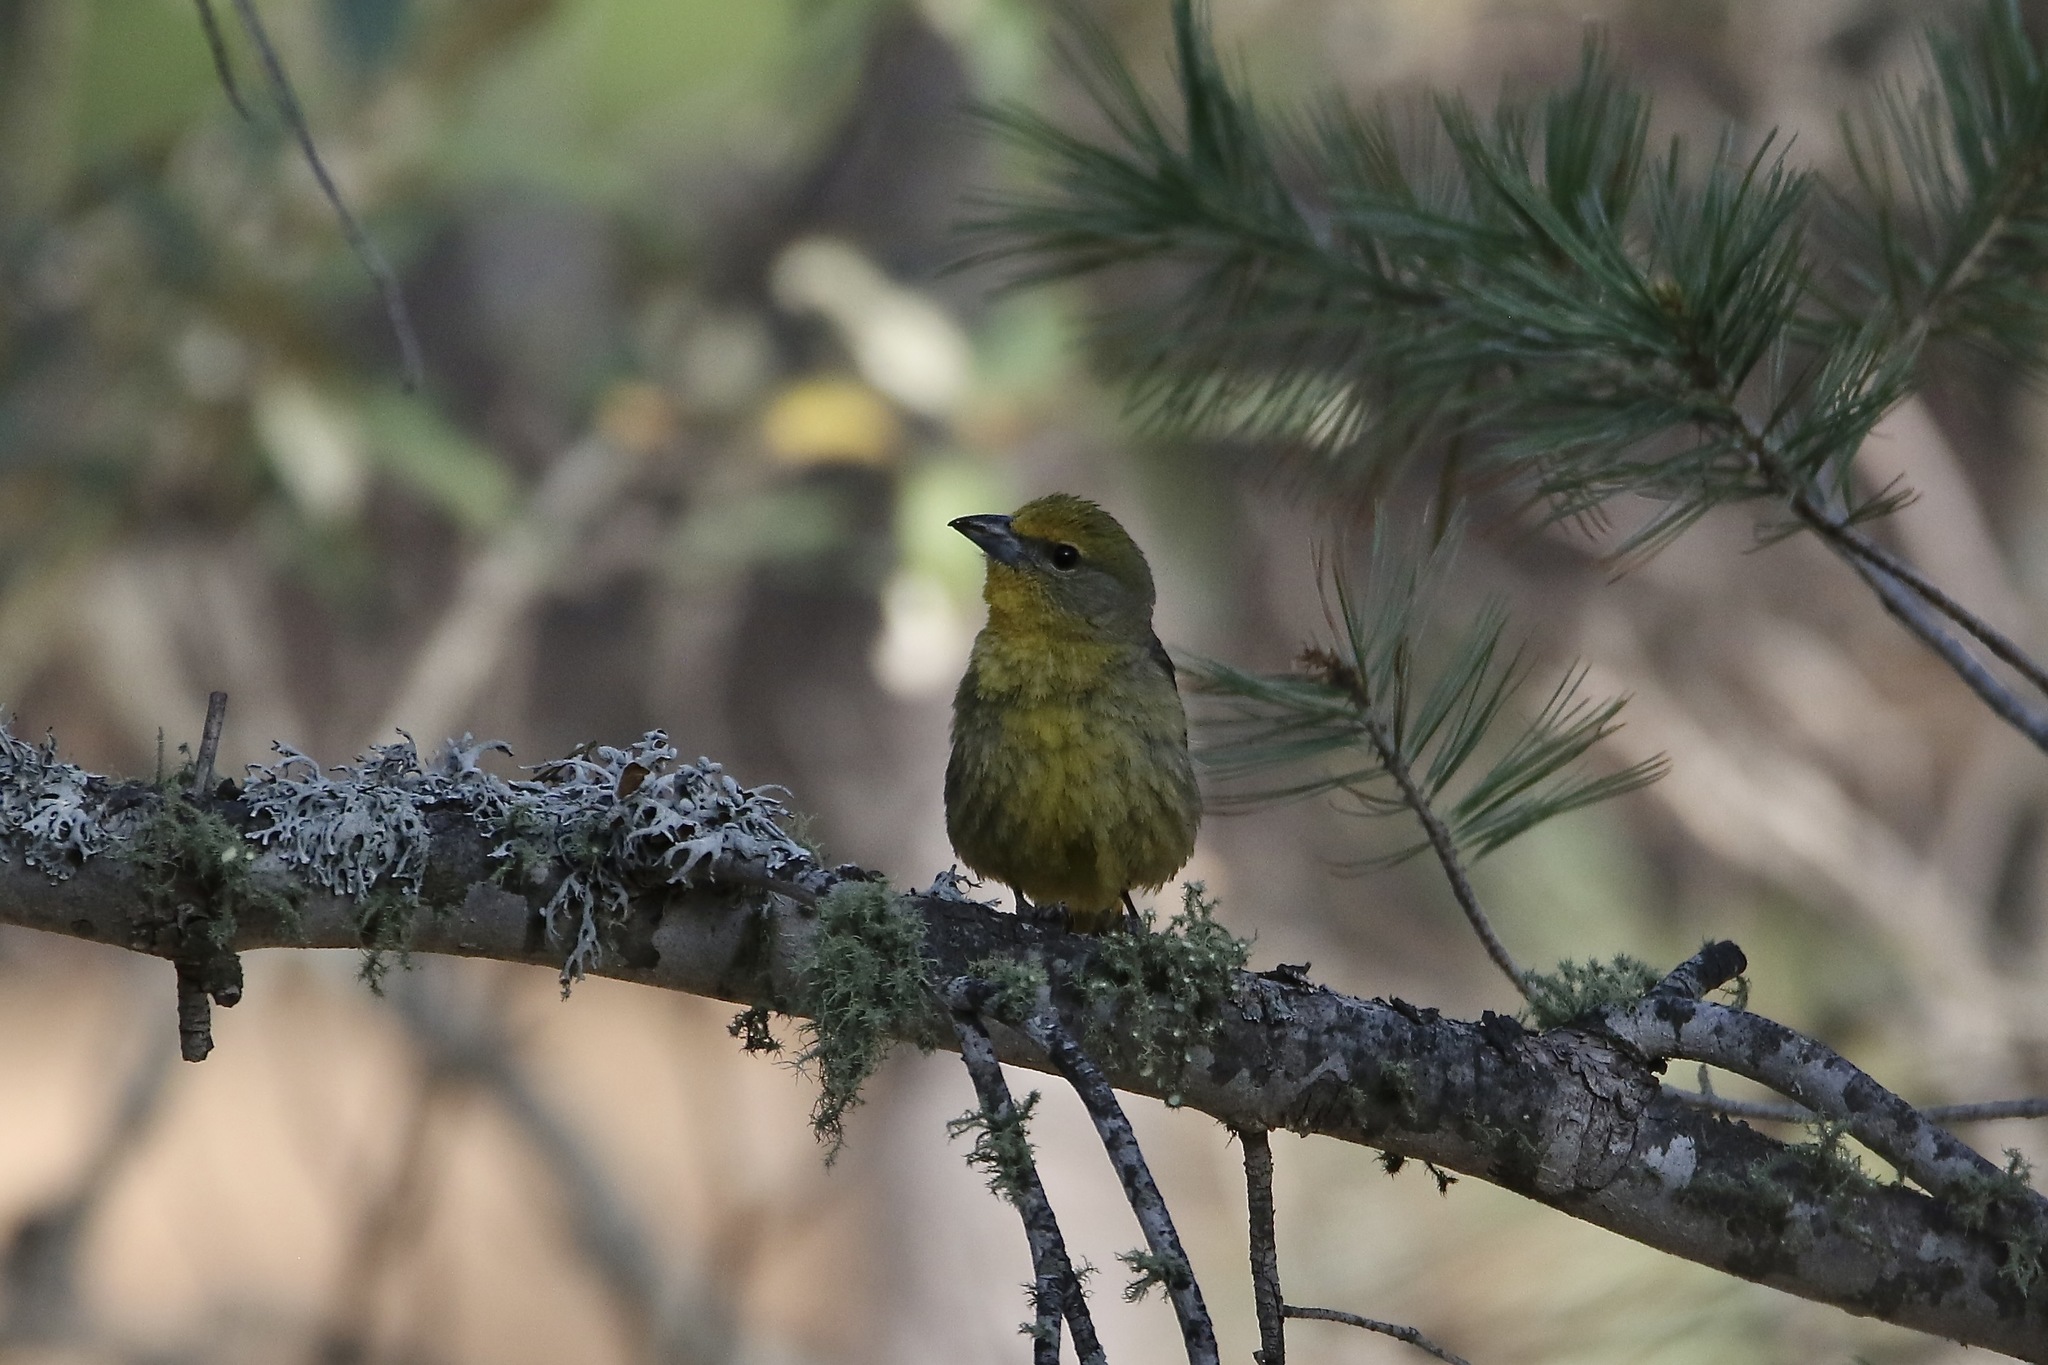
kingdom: Animalia
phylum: Chordata
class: Aves
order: Passeriformes
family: Cardinalidae
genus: Piranga
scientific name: Piranga flava
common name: Red tanager
